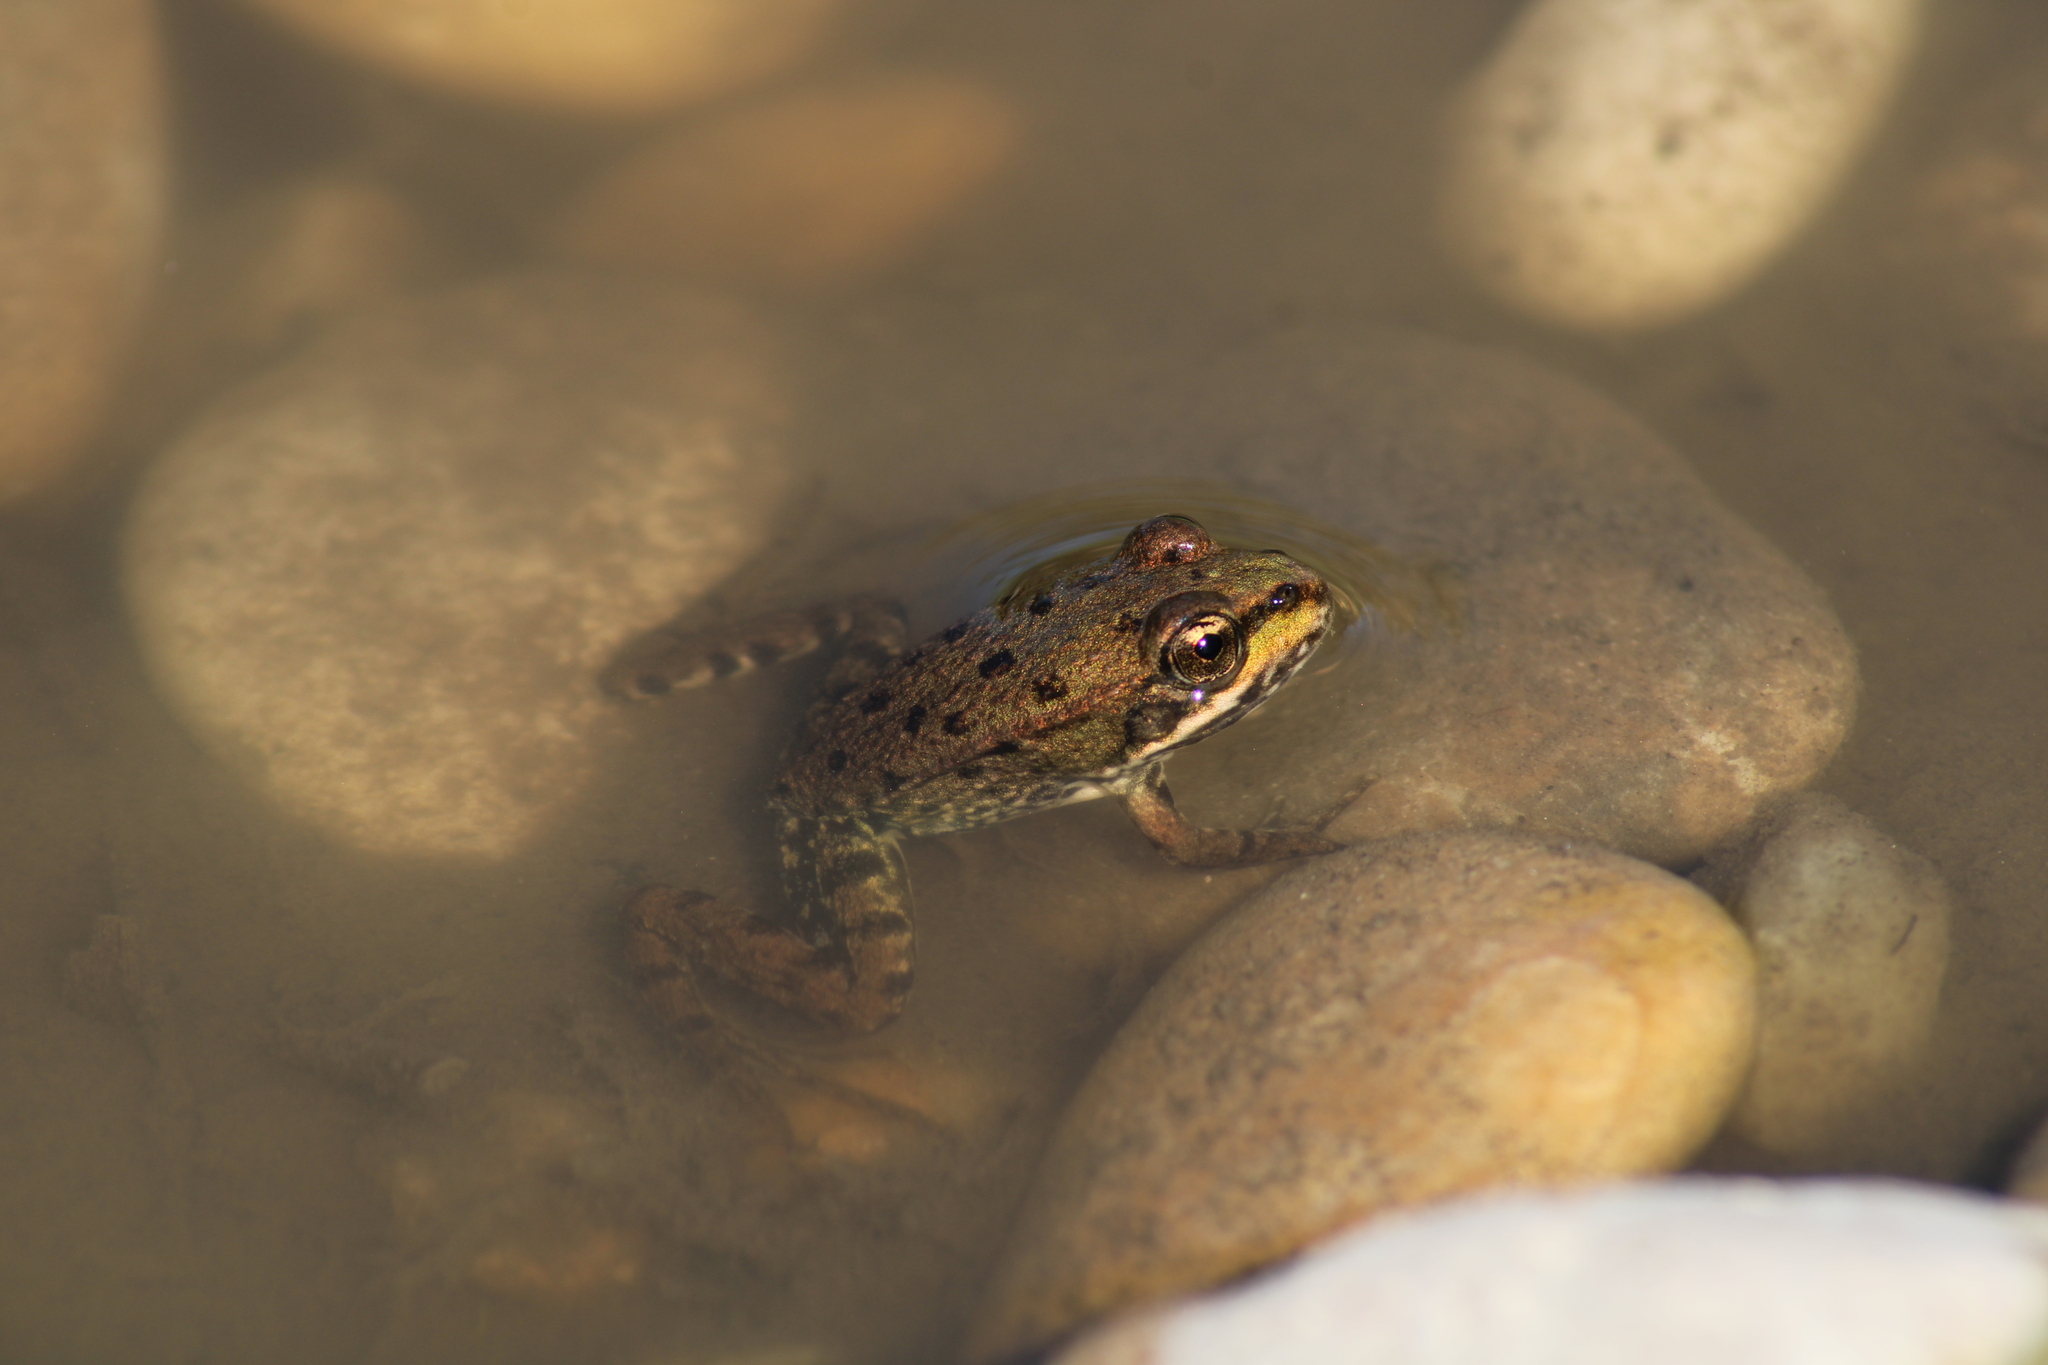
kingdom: Animalia
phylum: Chordata
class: Amphibia
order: Anura
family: Ranidae
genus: Pelophylax
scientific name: Pelophylax
